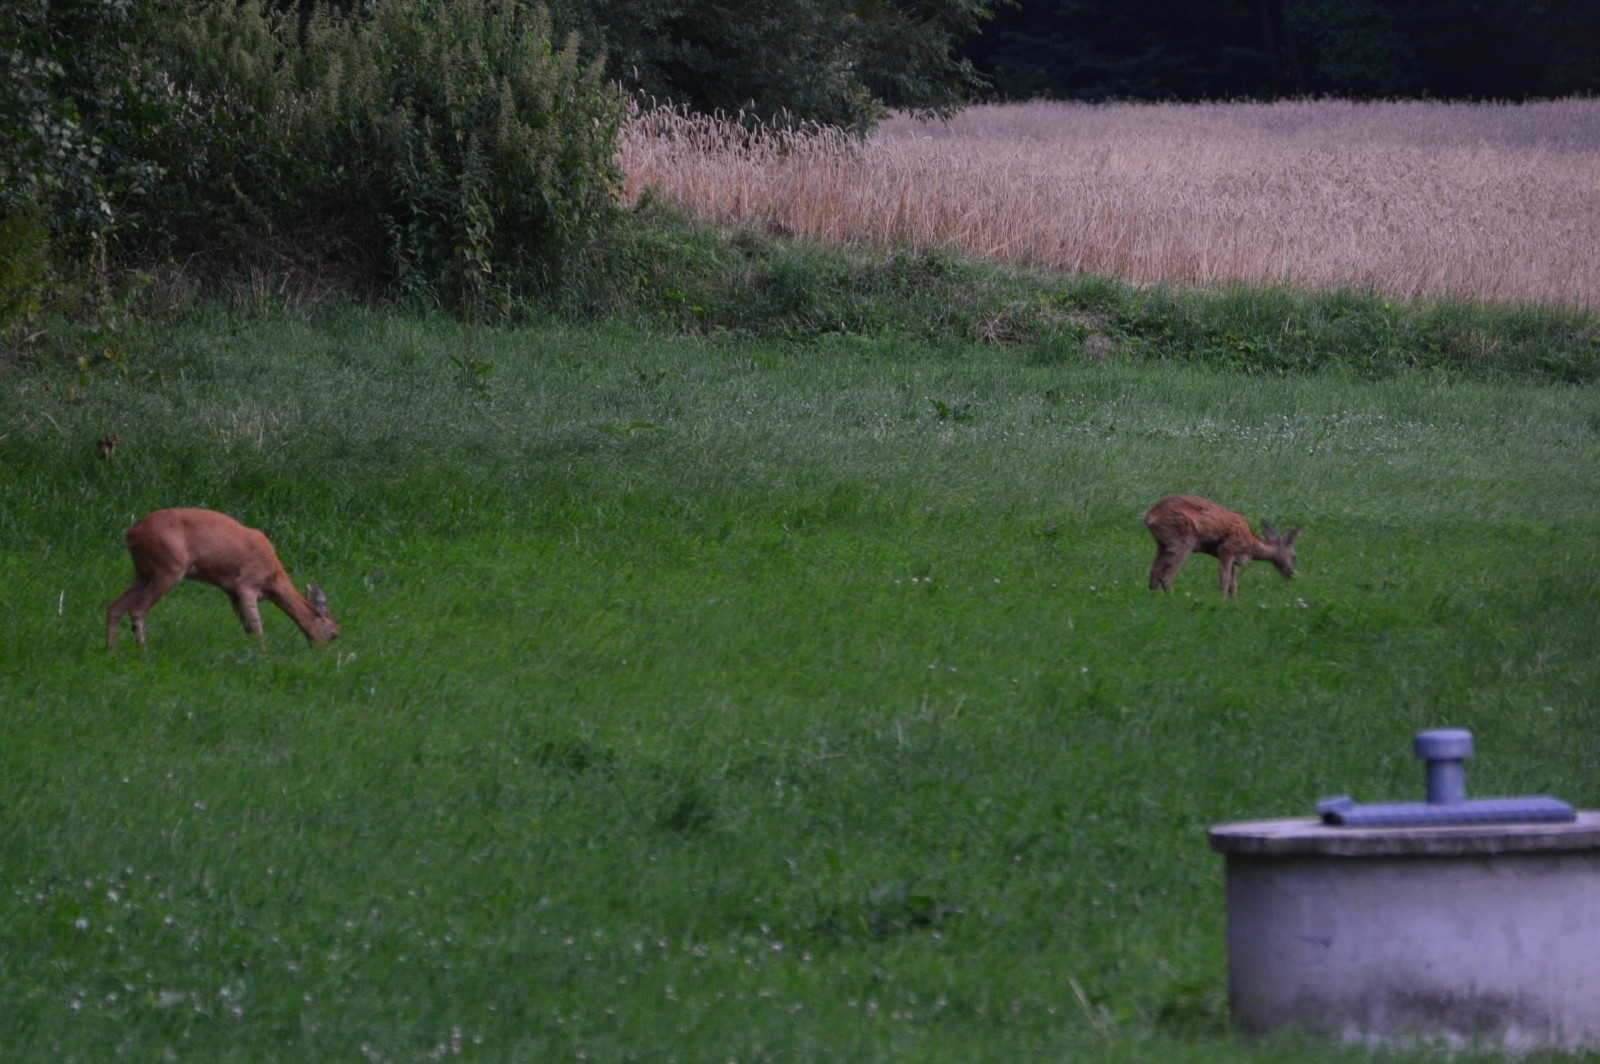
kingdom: Animalia
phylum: Chordata
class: Mammalia
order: Artiodactyla
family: Cervidae
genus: Capreolus
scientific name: Capreolus capreolus
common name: Western roe deer
